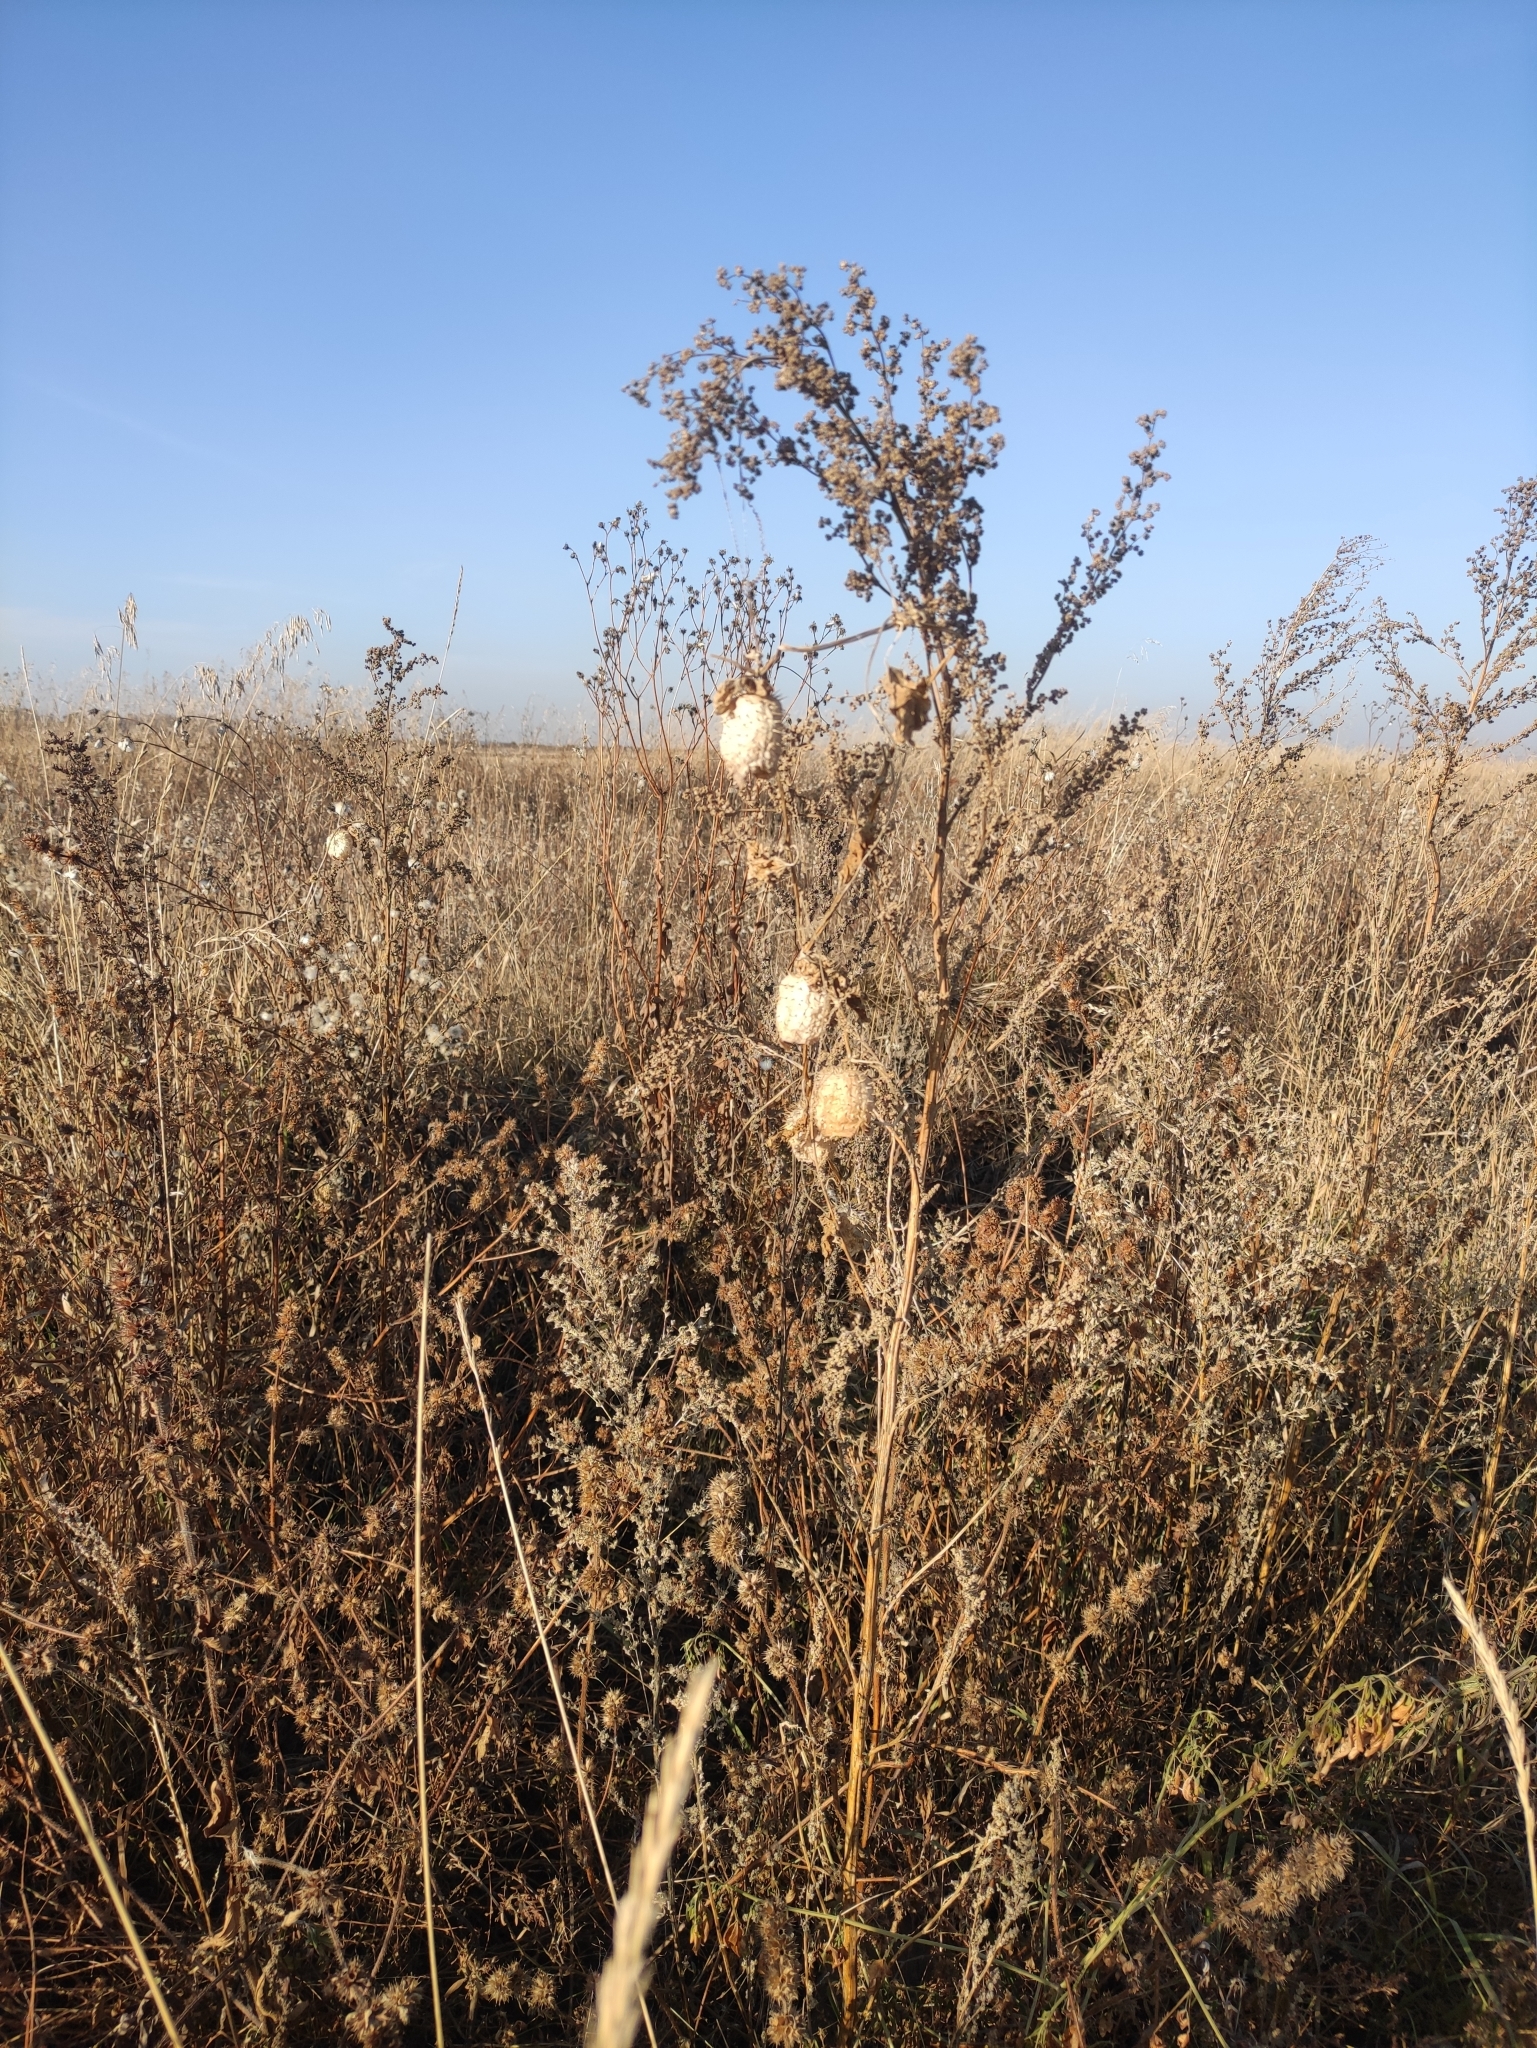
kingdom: Plantae
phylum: Tracheophyta
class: Magnoliopsida
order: Cucurbitales
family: Cucurbitaceae
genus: Echinocystis
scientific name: Echinocystis lobata
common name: Wild cucumber
